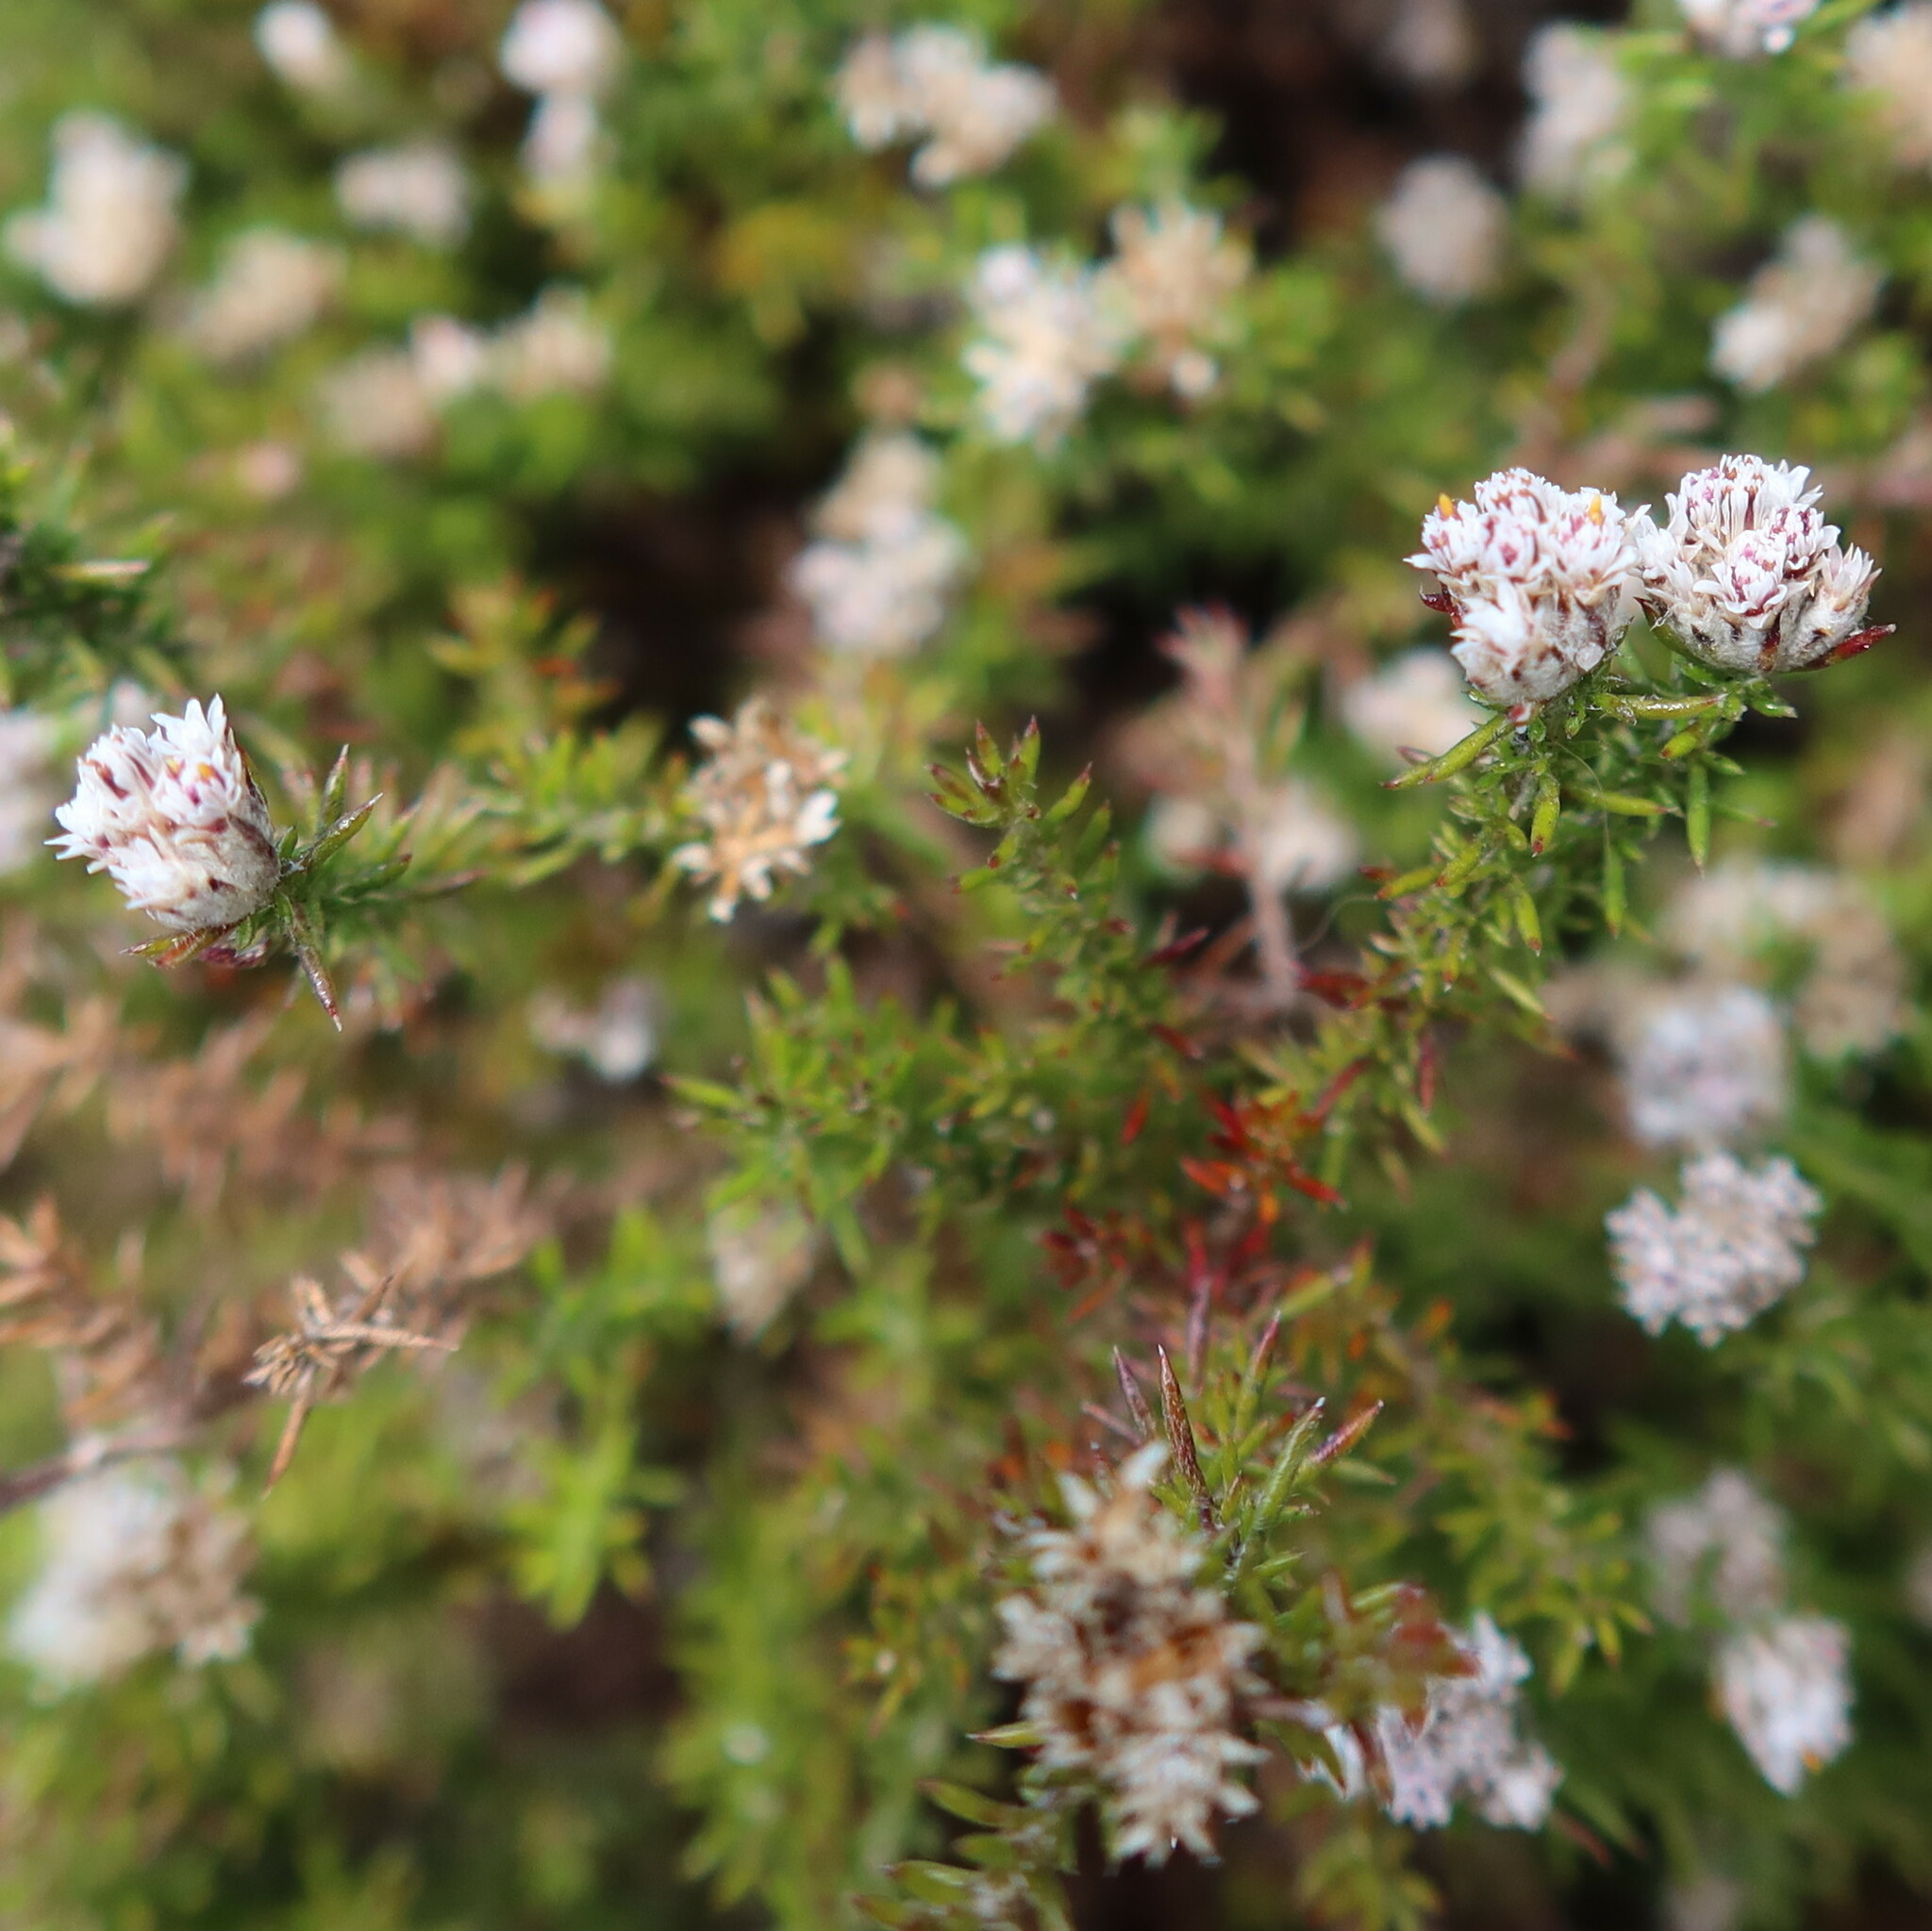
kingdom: Plantae
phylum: Tracheophyta
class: Magnoliopsida
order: Asterales
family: Asteraceae
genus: Metalasia
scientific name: Metalasia divergens
